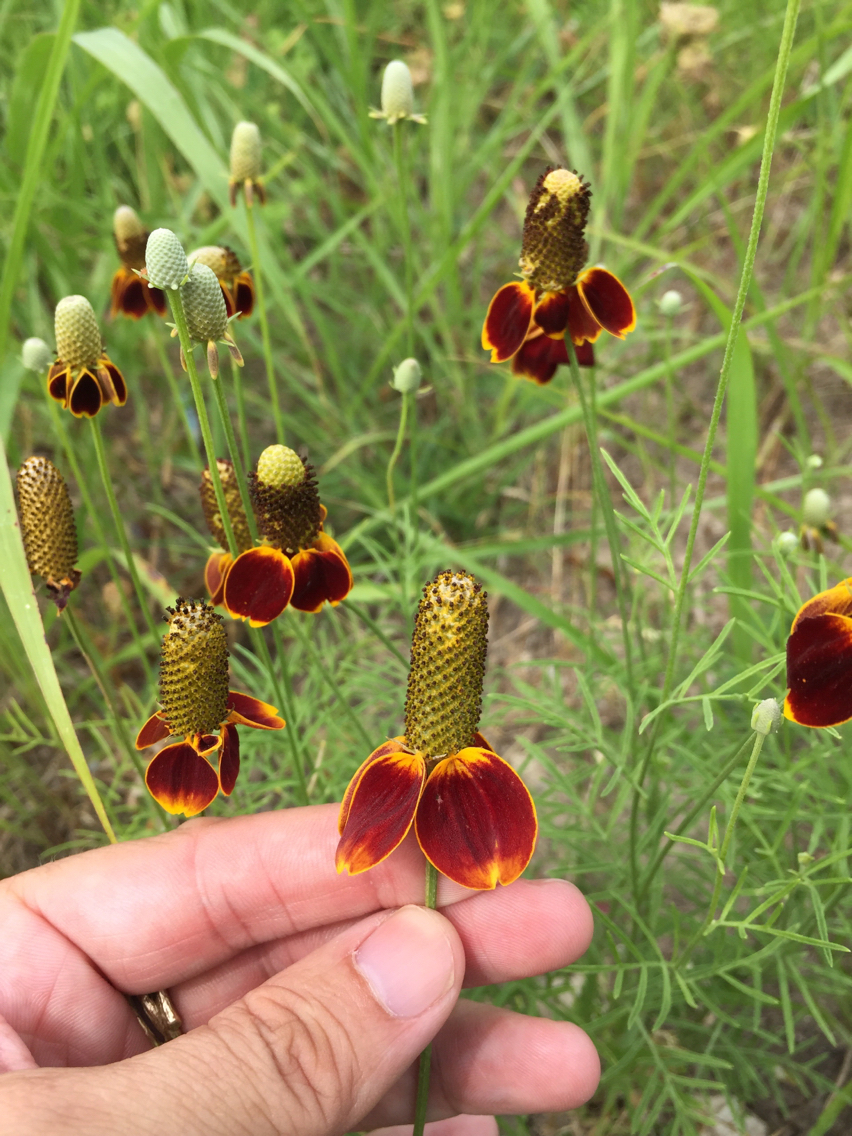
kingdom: Plantae
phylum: Tracheophyta
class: Magnoliopsida
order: Asterales
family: Asteraceae
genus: Ratibida
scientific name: Ratibida columnifera
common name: Prairie coneflower
